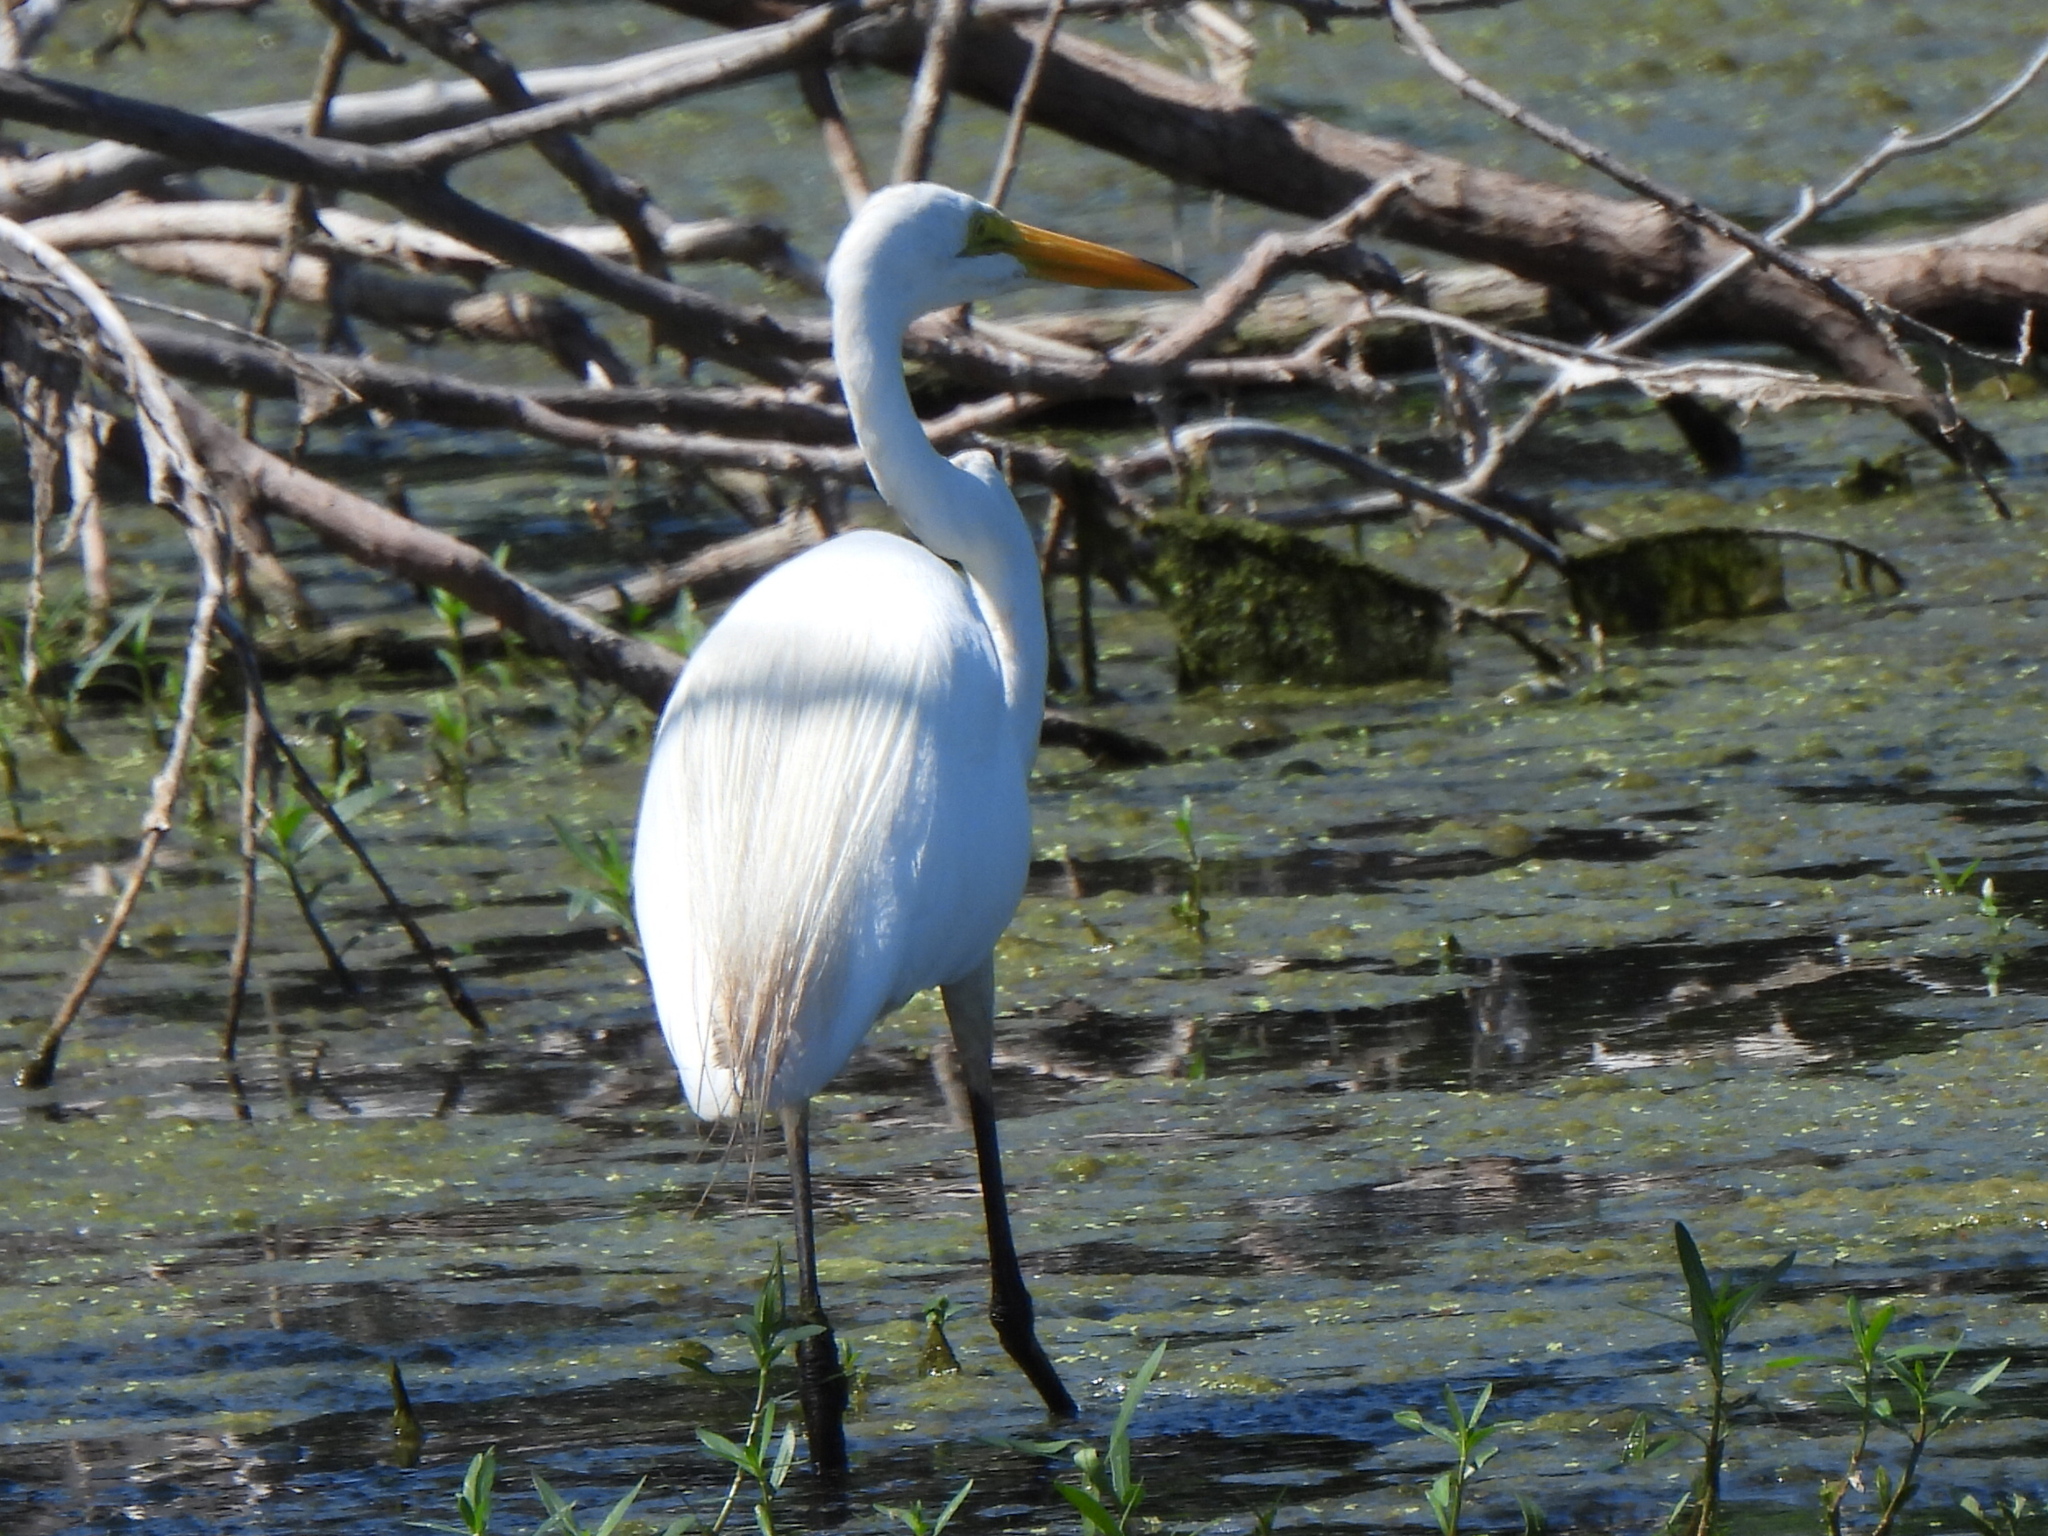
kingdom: Animalia
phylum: Chordata
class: Aves
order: Pelecaniformes
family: Ardeidae
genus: Ardea
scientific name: Ardea alba
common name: Great egret
